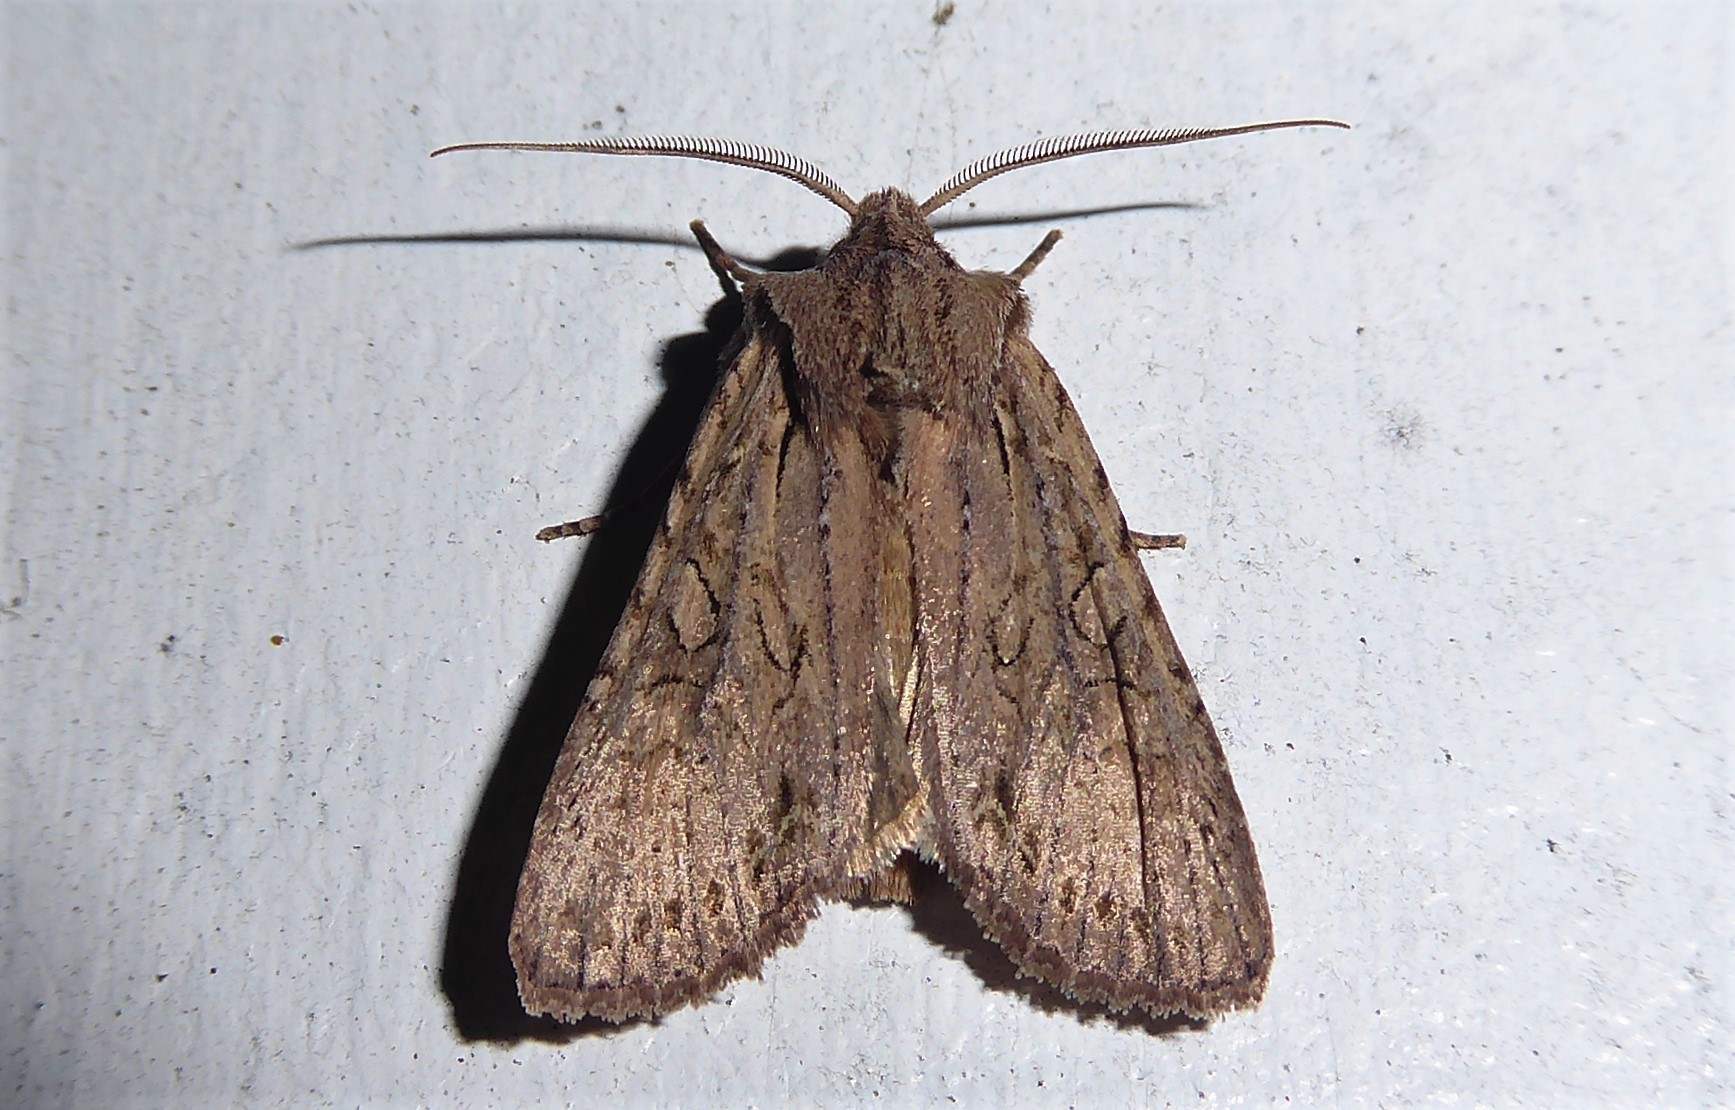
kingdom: Animalia
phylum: Arthropoda
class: Insecta
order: Lepidoptera
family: Noctuidae
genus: Ichneutica
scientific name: Ichneutica
